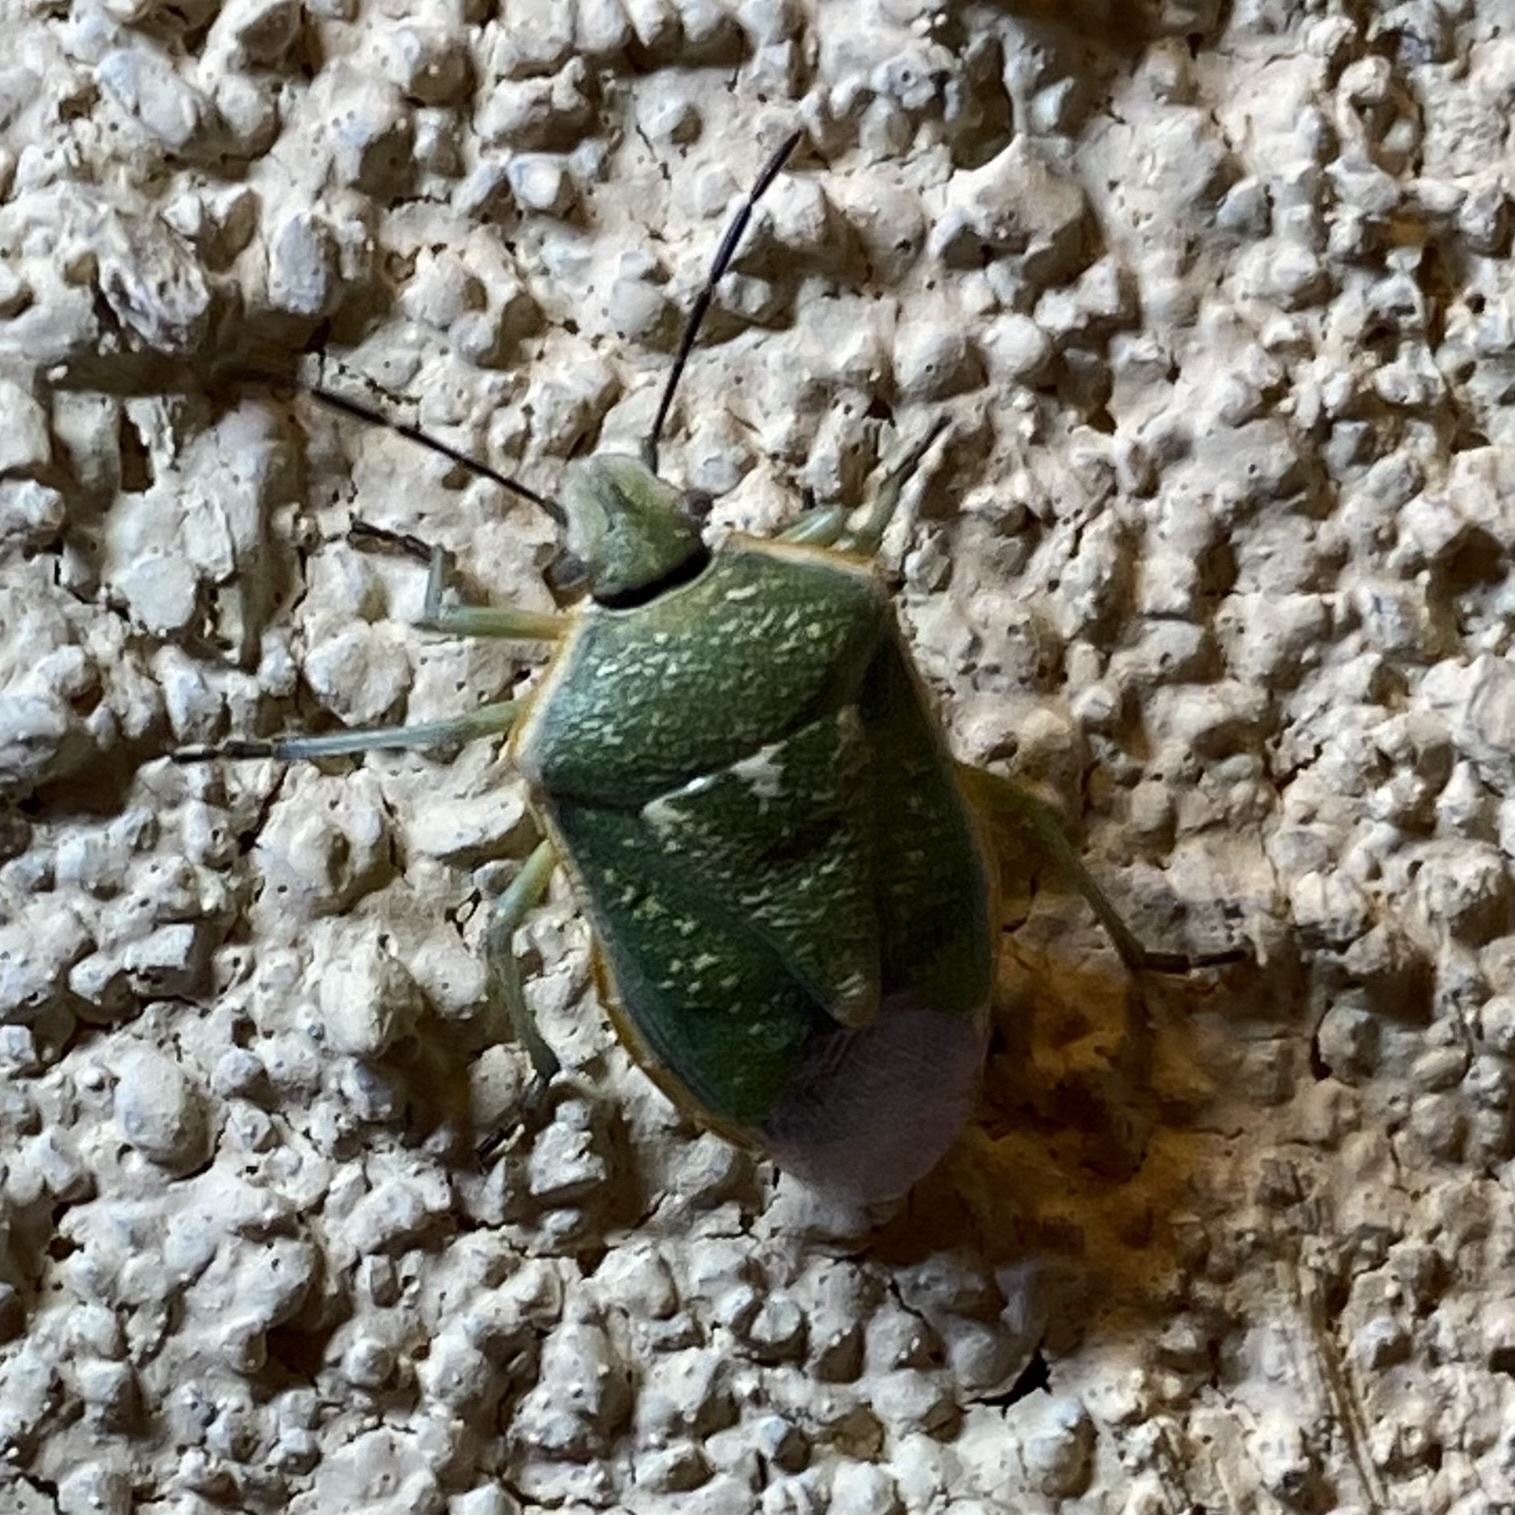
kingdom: Animalia
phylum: Arthropoda
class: Insecta
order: Hemiptera
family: Pentatomidae
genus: Chlorochroa
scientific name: Chlorochroa sayi
